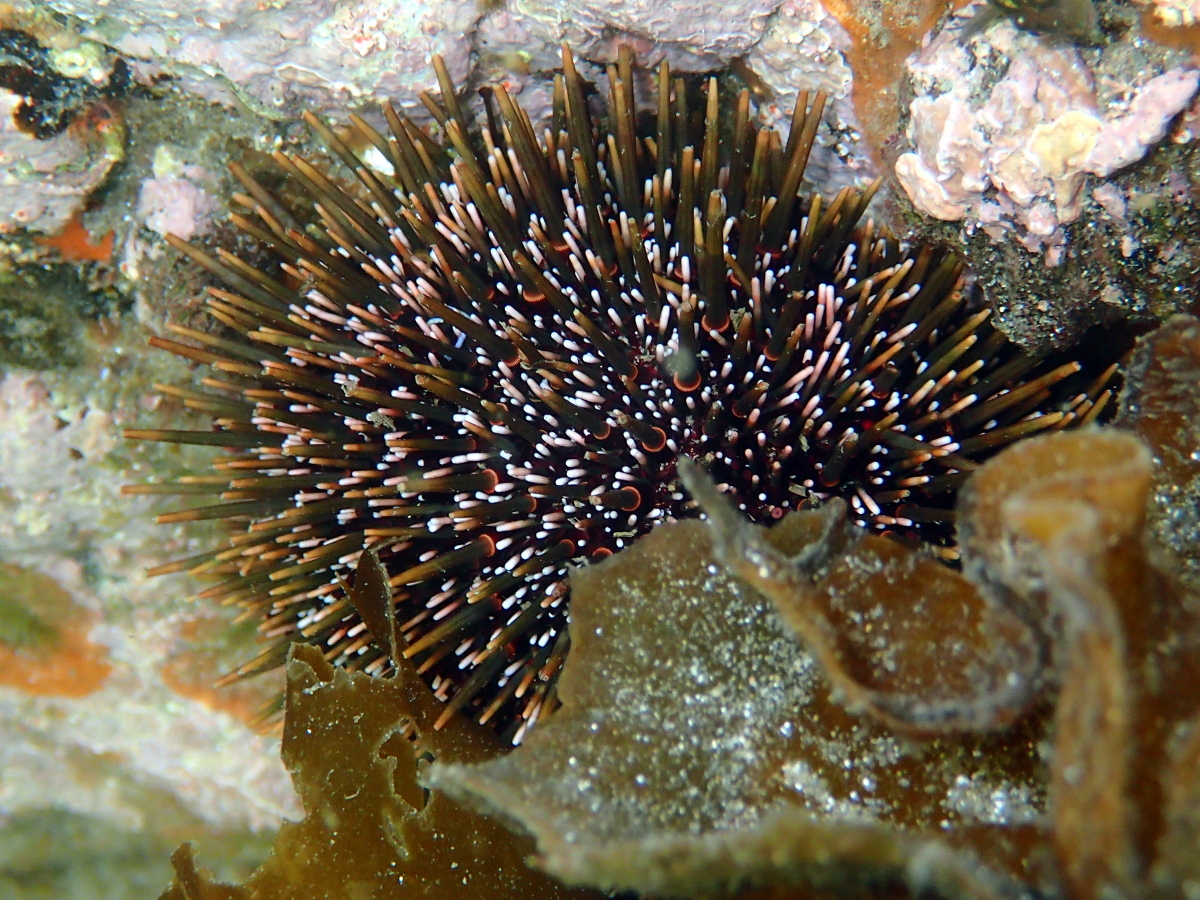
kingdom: Animalia
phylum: Echinodermata
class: Echinoidea
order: Camarodonta
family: Echinometridae
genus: Evechinus
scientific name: Evechinus chloroticus
